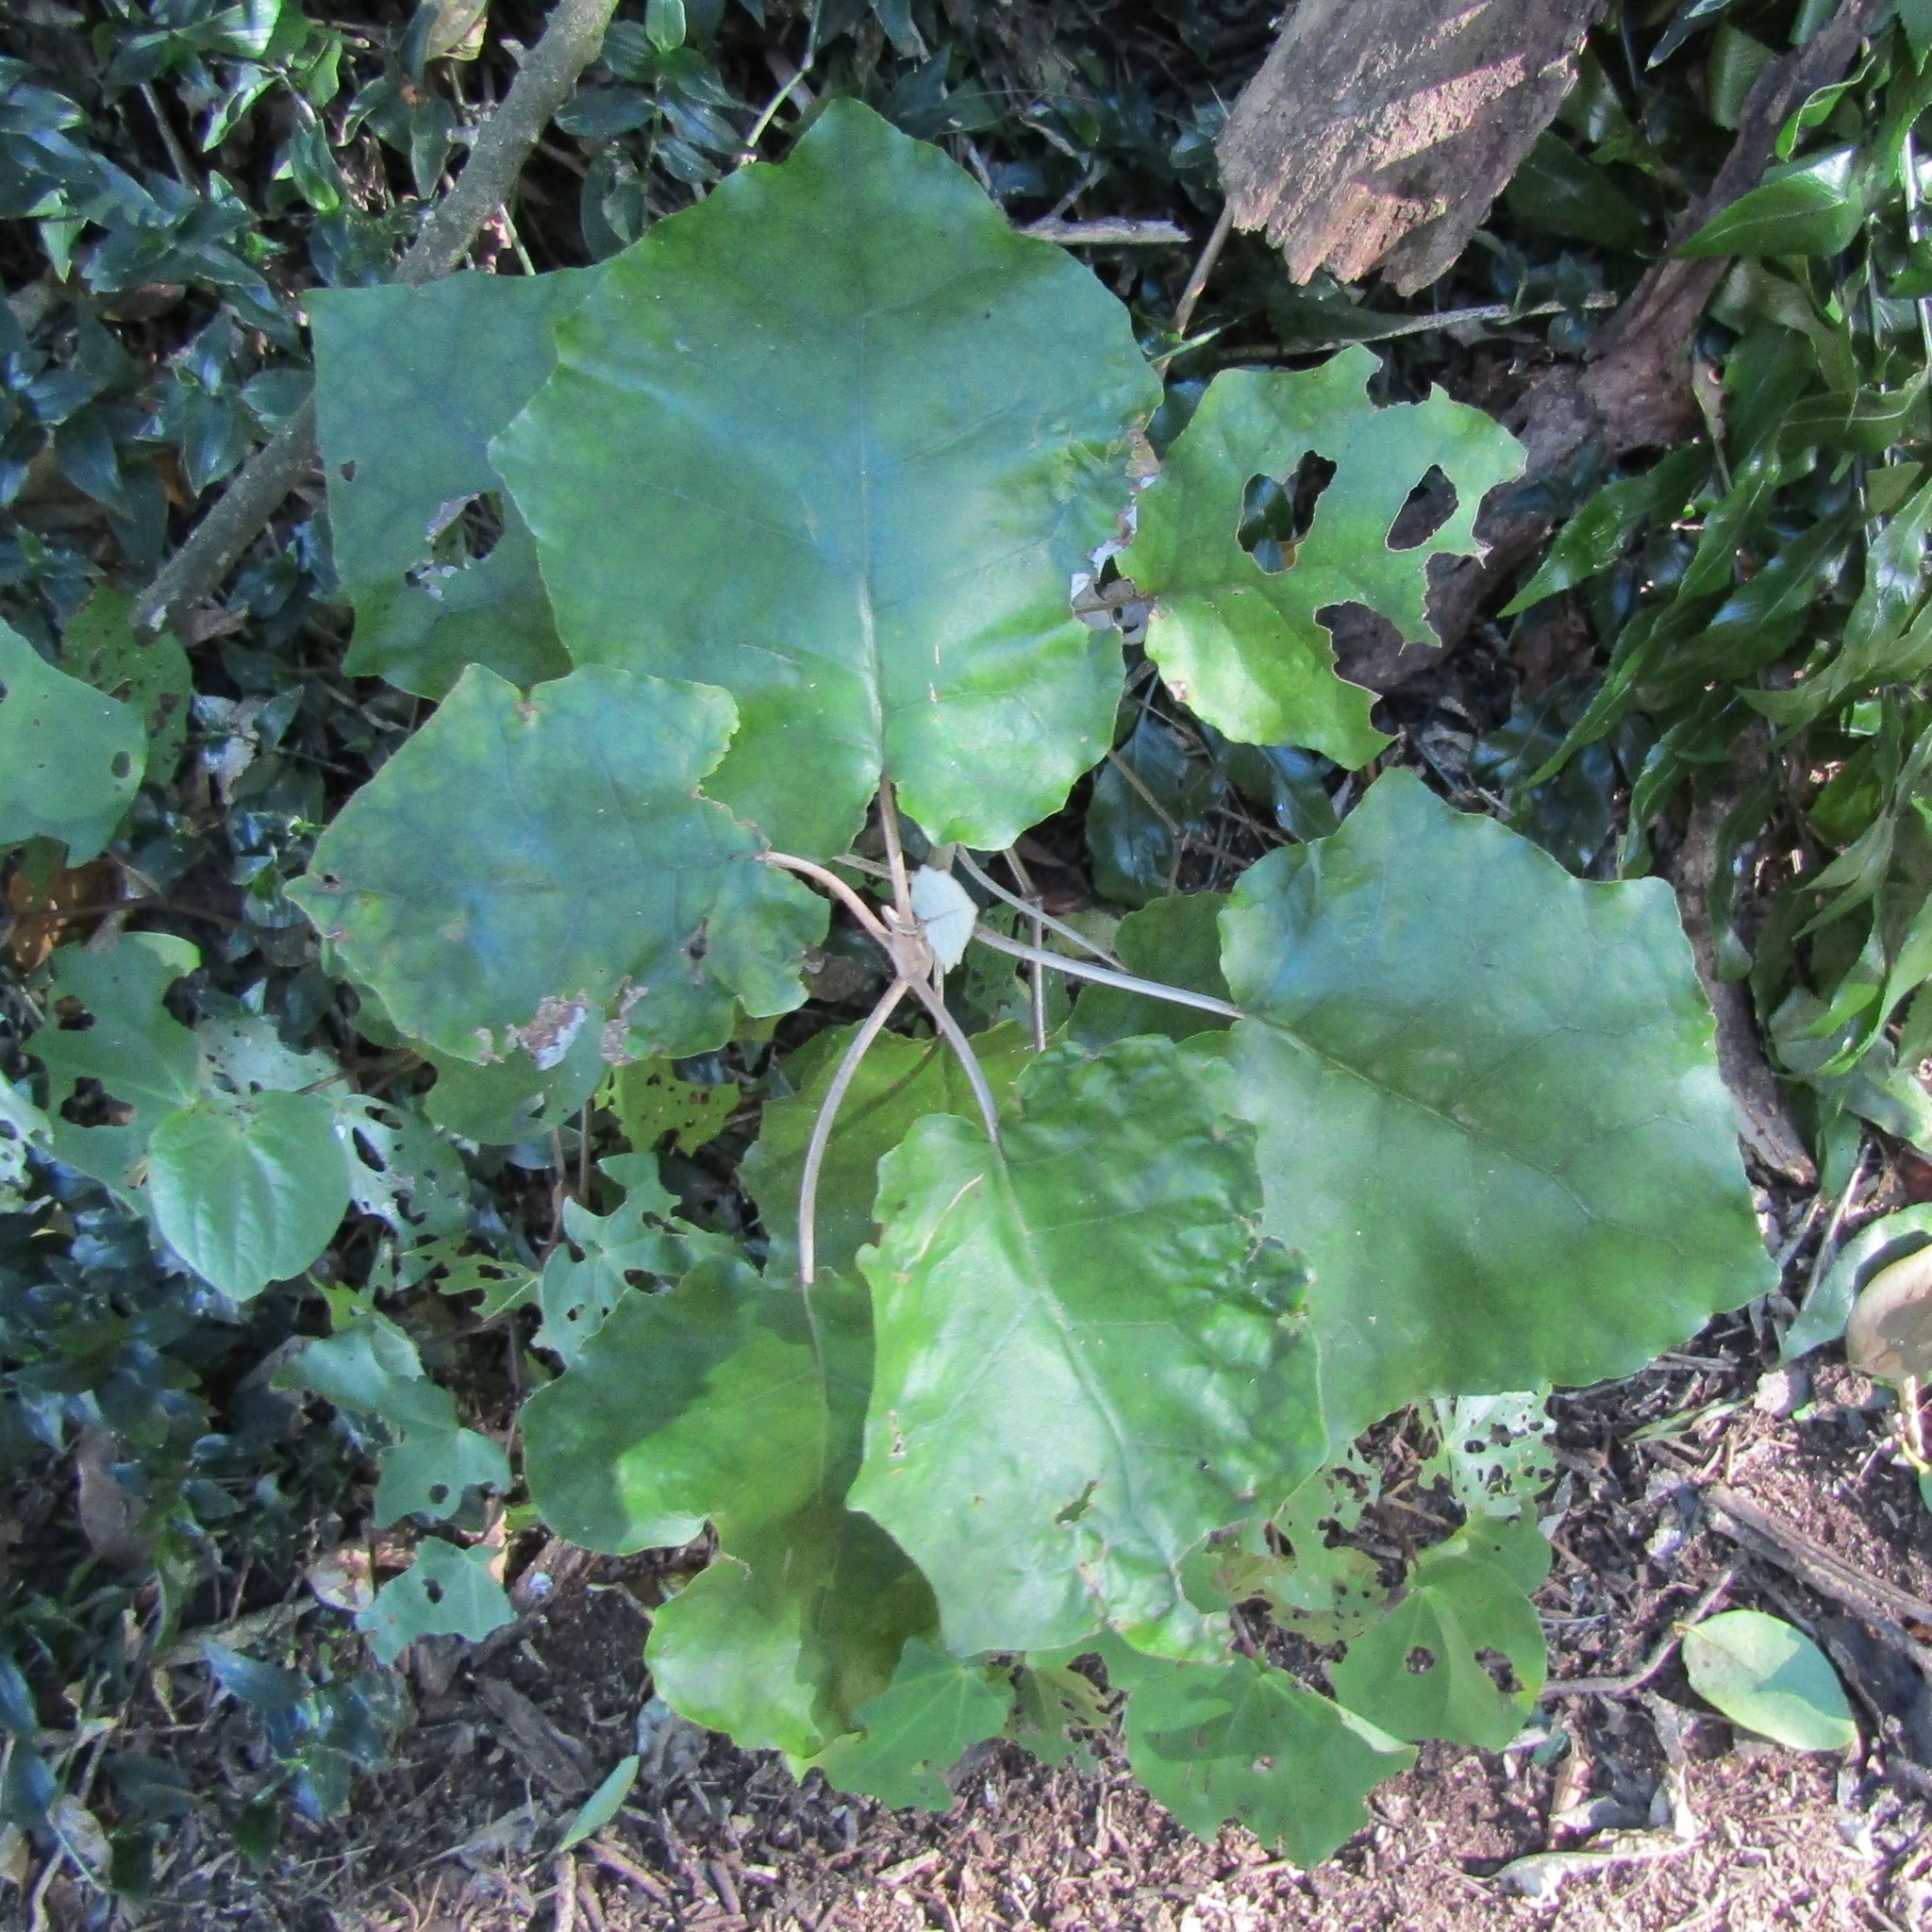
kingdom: Plantae
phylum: Tracheophyta
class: Magnoliopsida
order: Asterales
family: Asteraceae
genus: Brachyglottis
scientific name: Brachyglottis repanda
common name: Hedge ragwort
